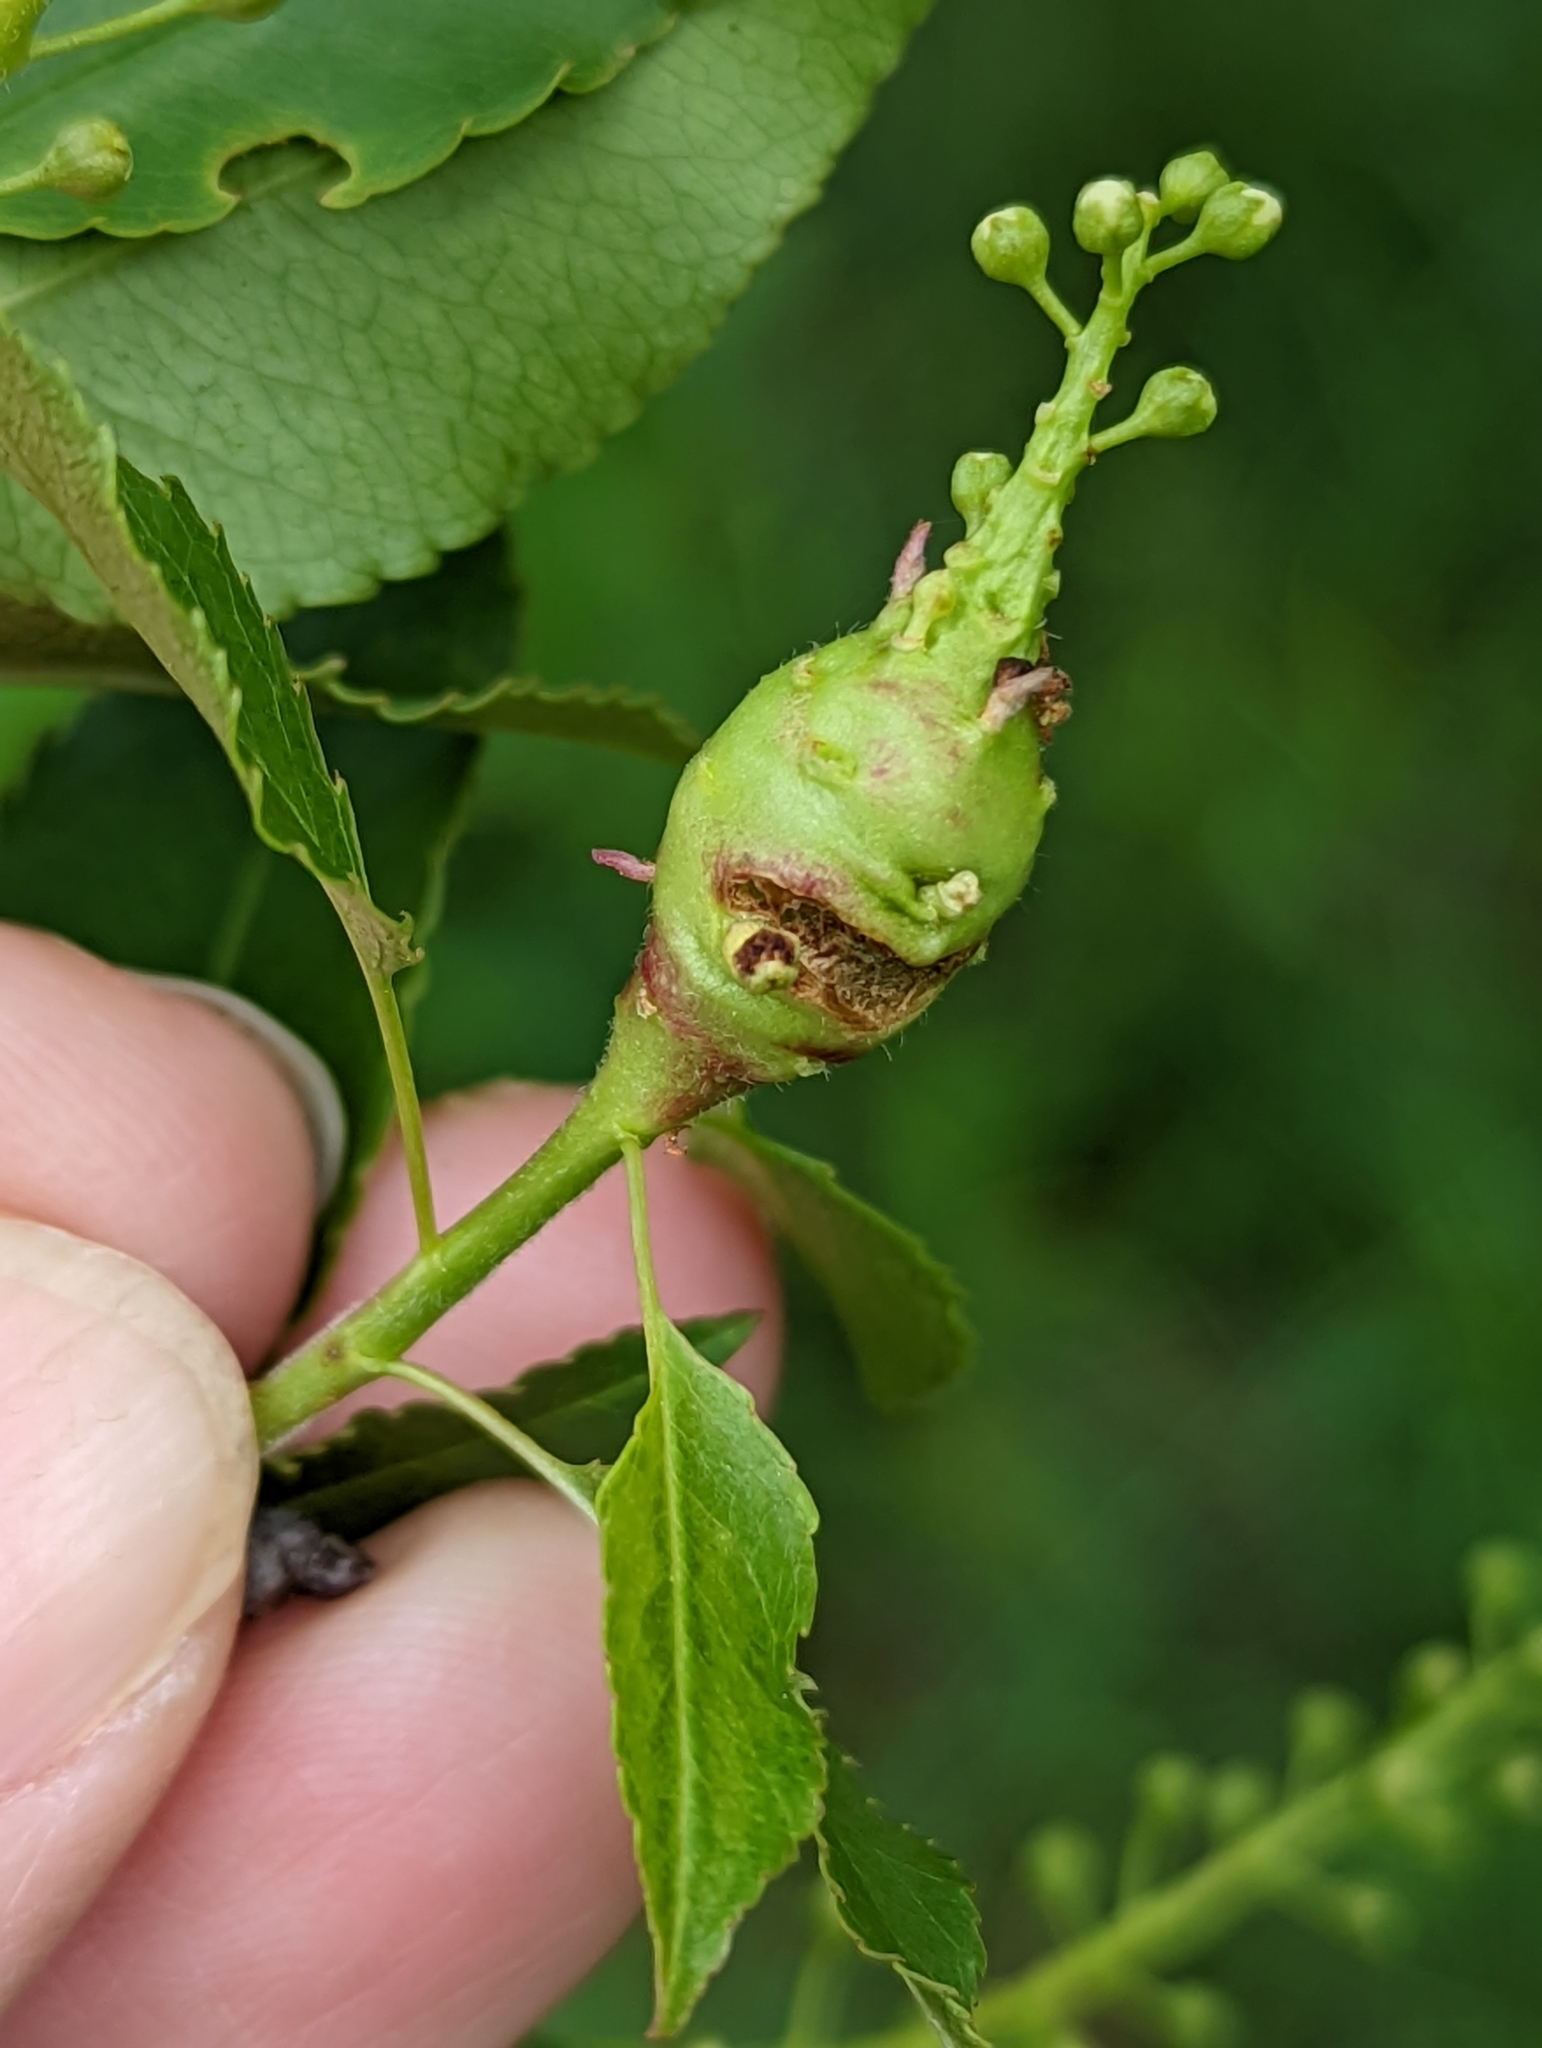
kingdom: Animalia
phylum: Arthropoda
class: Insecta
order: Diptera
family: Cecidomyiidae
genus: Contarinia
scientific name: Contarinia racemi
